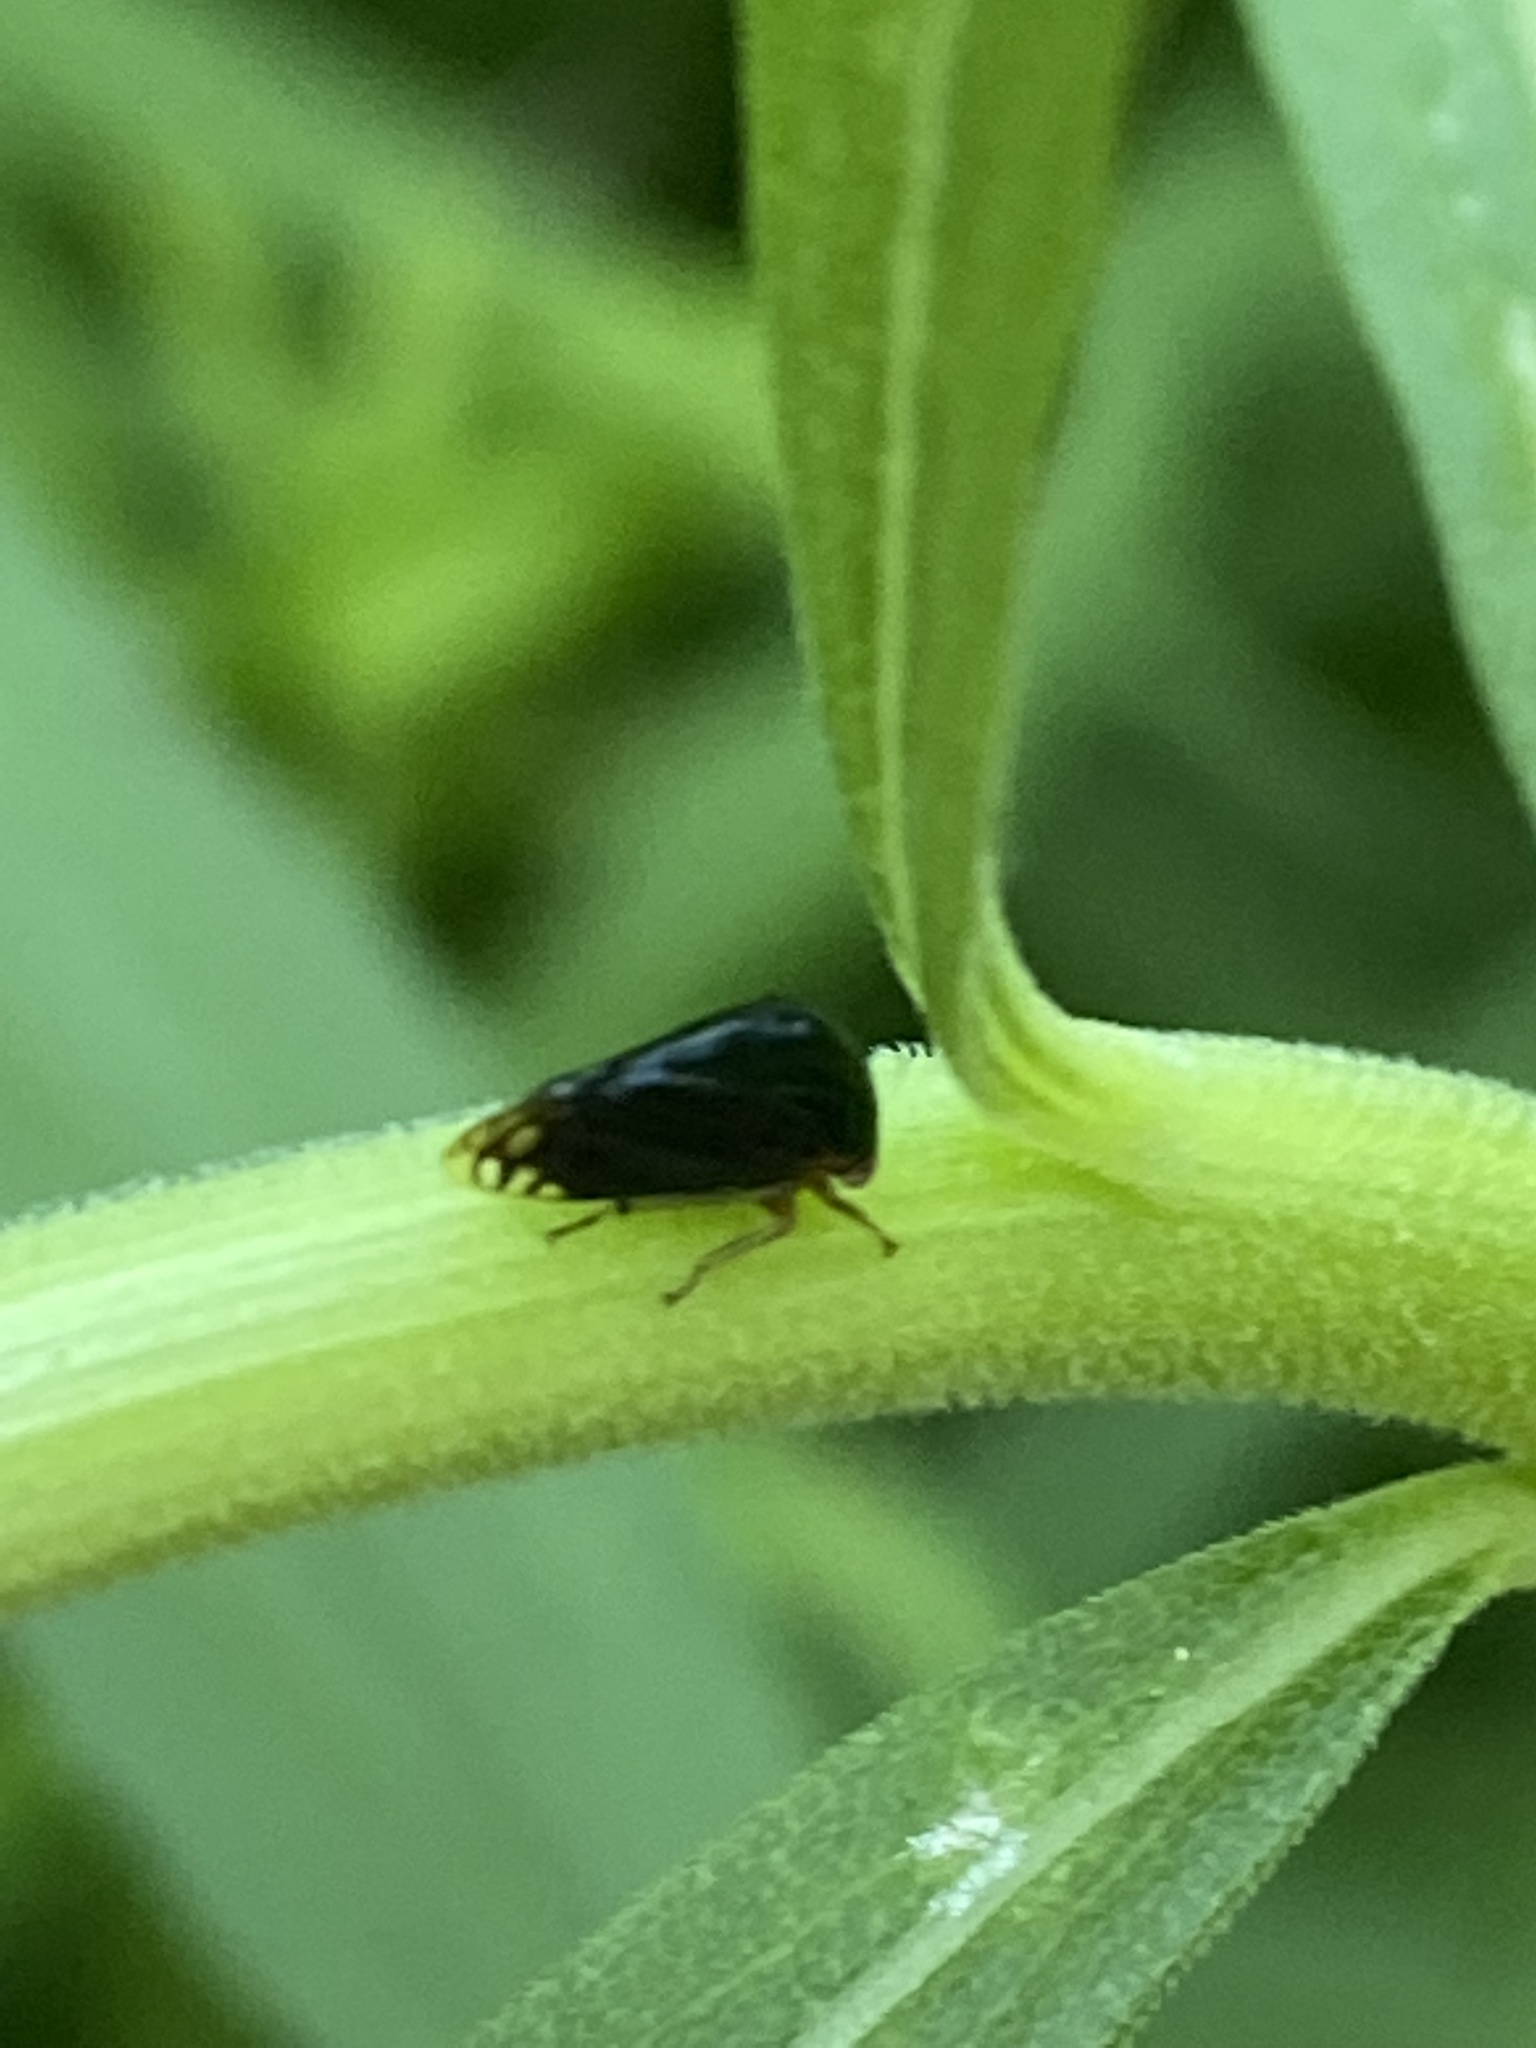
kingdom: Animalia
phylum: Arthropoda
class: Insecta
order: Hemiptera
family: Membracidae
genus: Acutalis
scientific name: Acutalis tartarea
